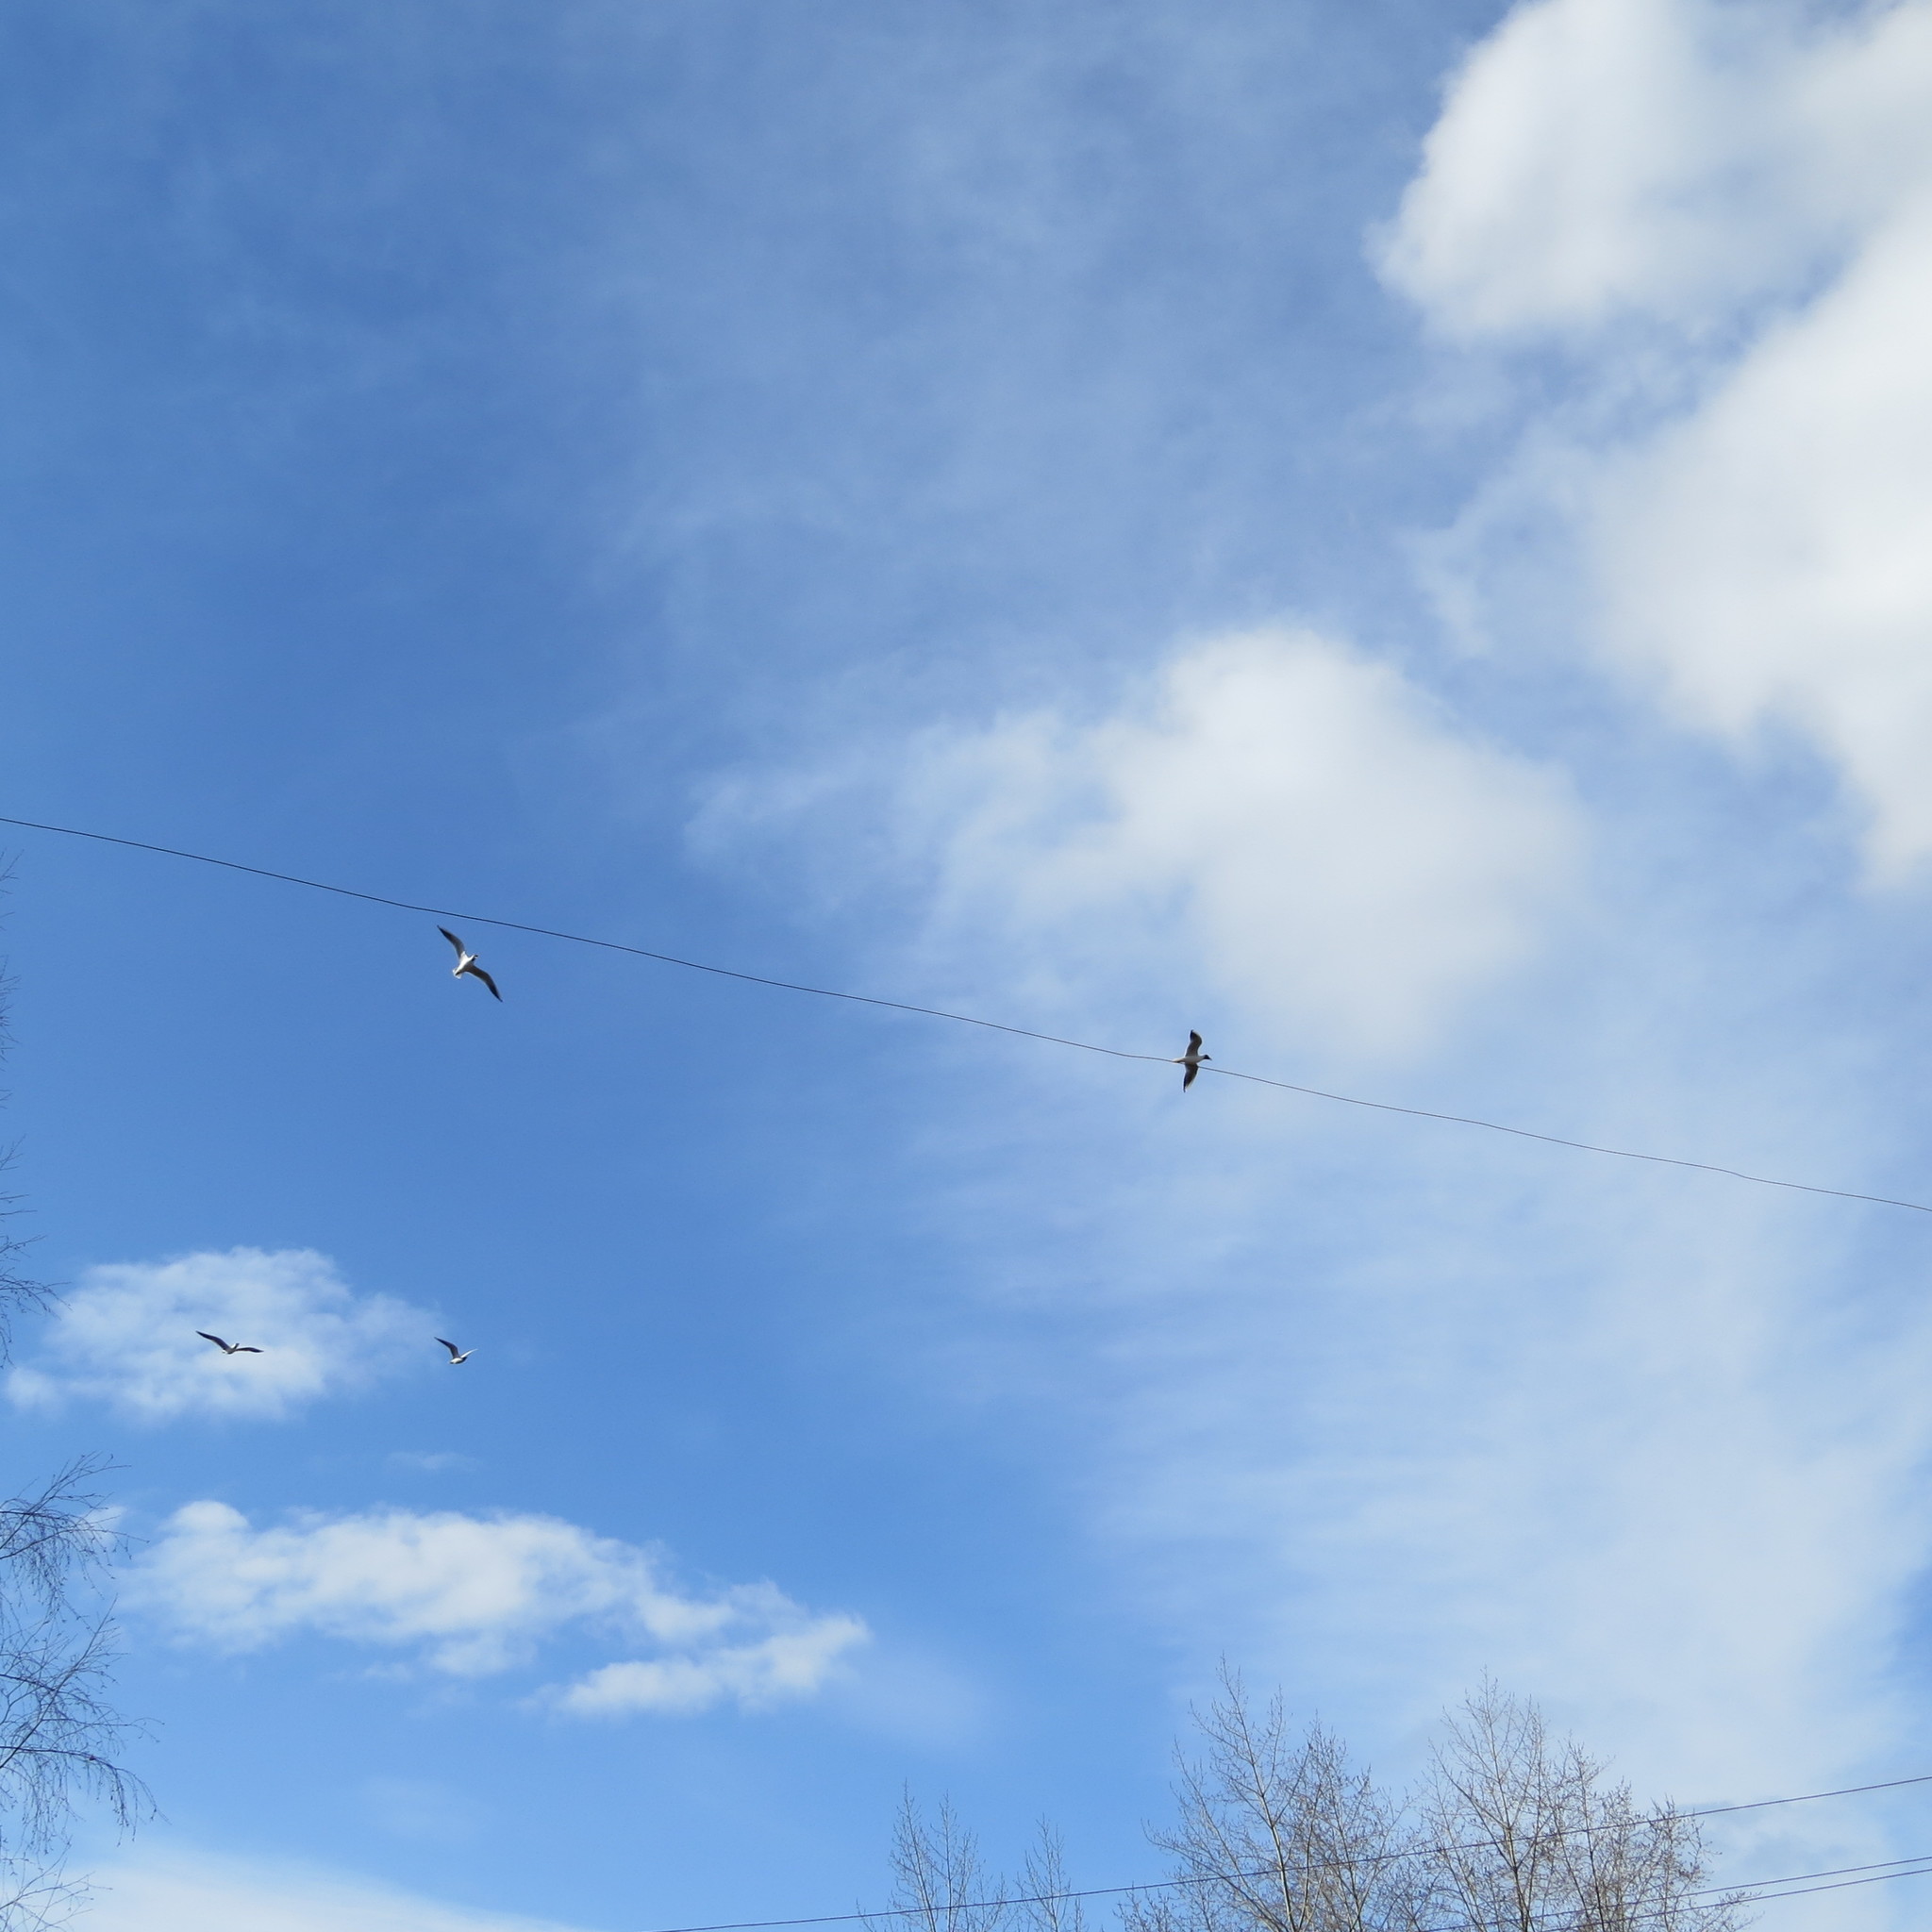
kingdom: Animalia
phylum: Chordata
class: Aves
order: Charadriiformes
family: Laridae
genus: Chroicocephalus
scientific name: Chroicocephalus ridibundus
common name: Black-headed gull
